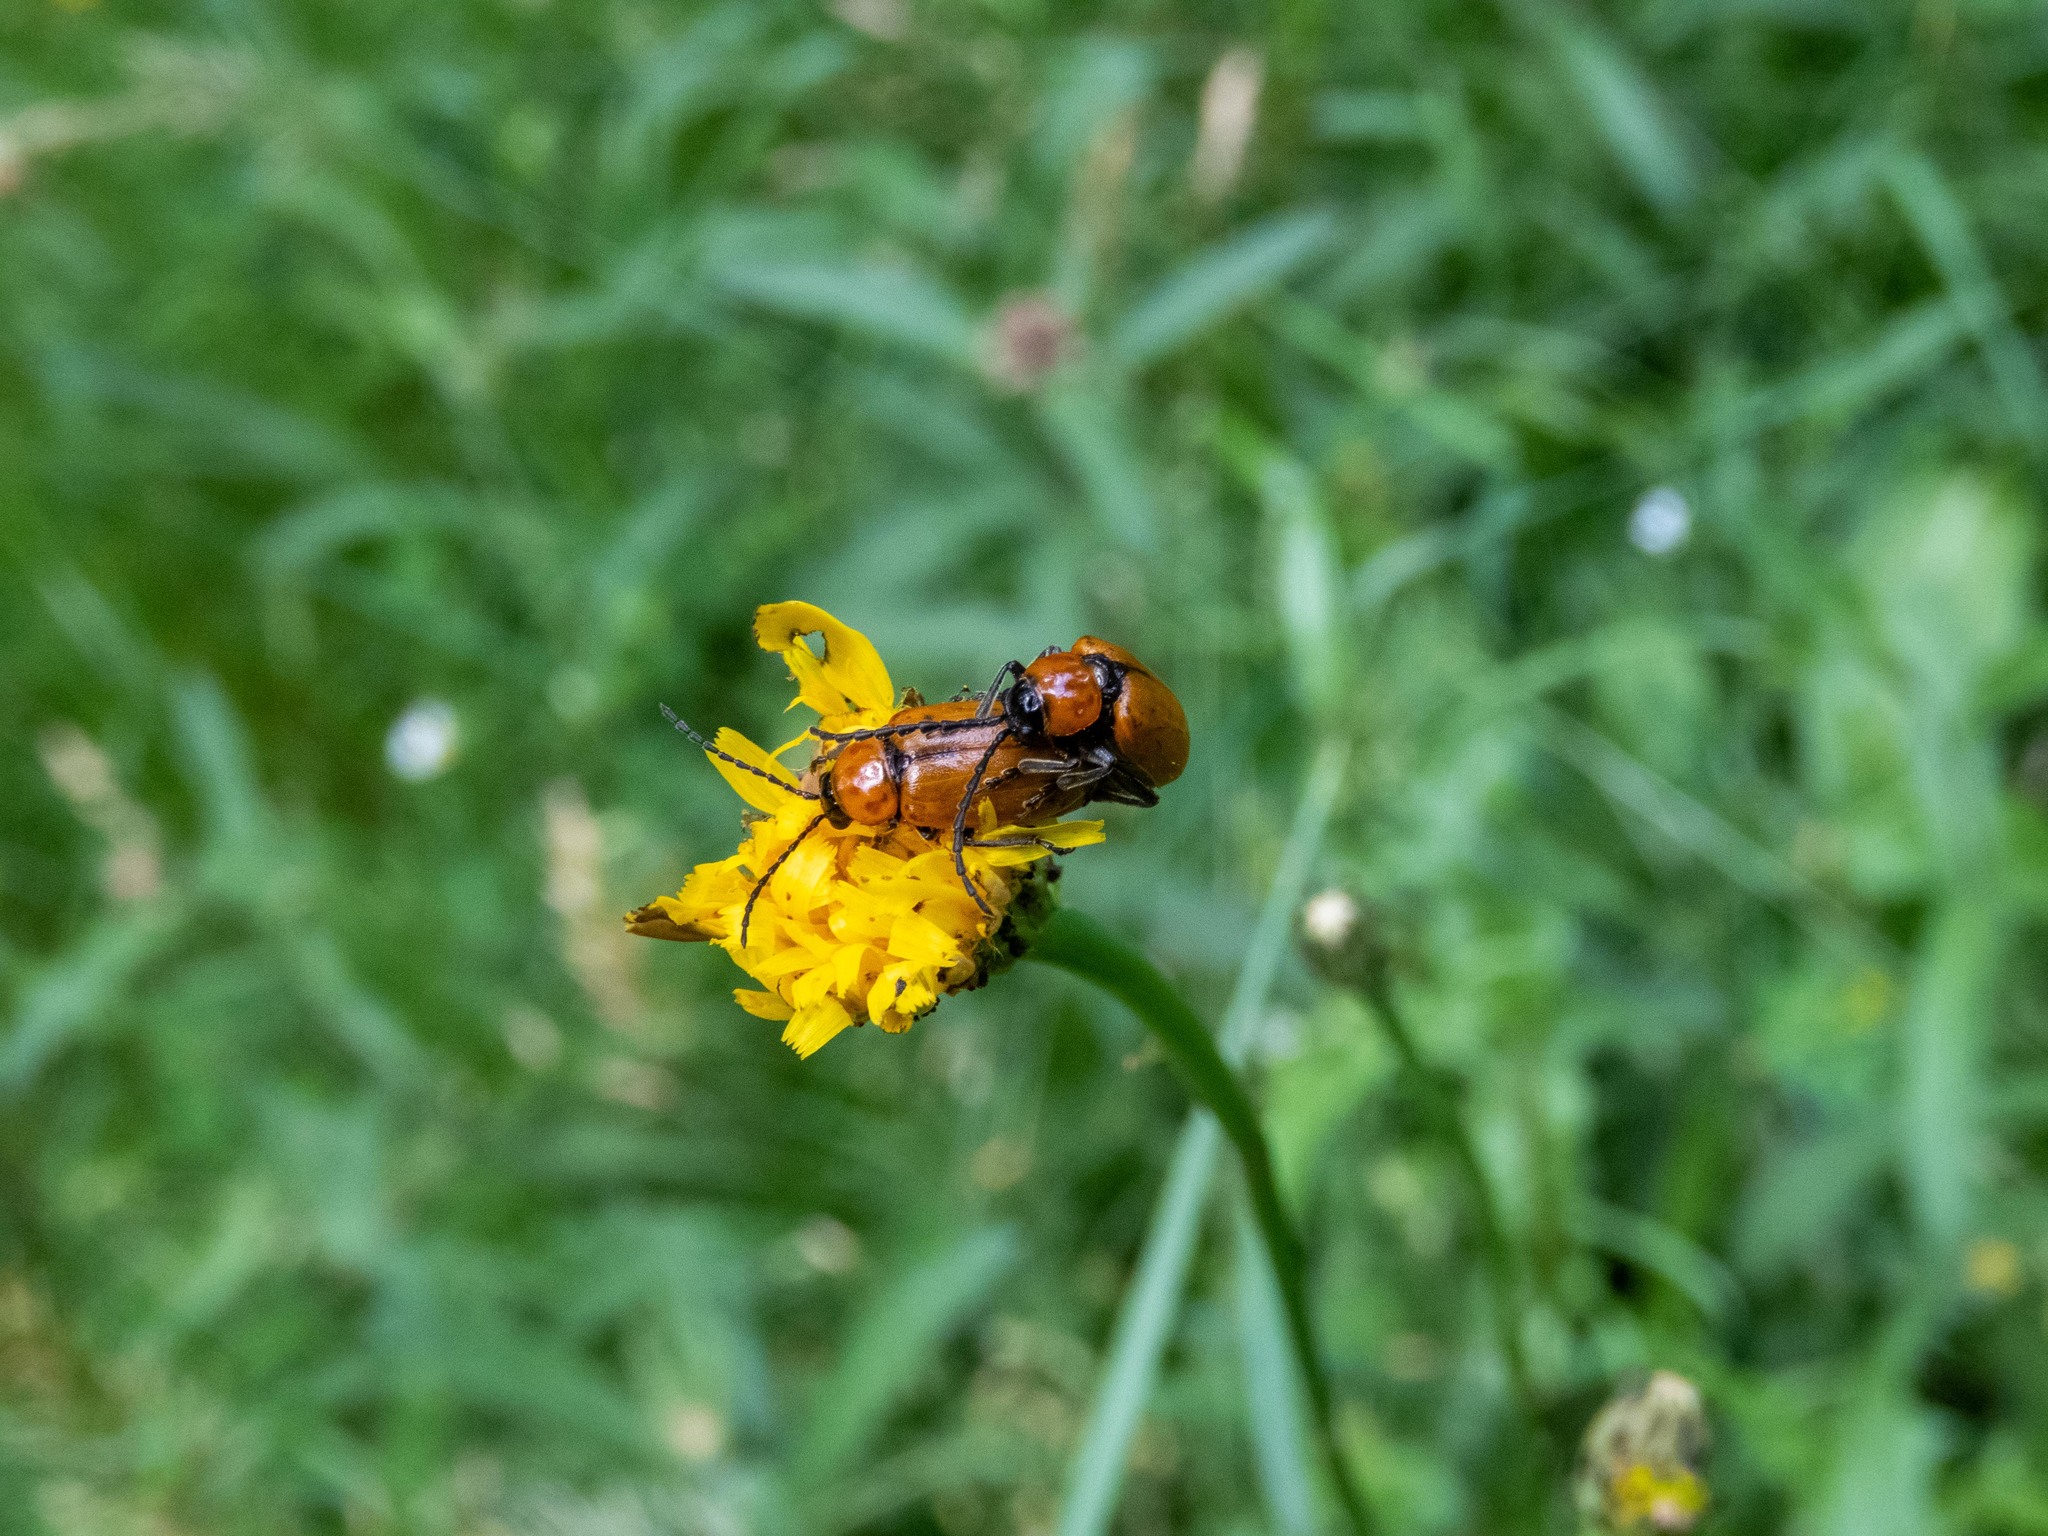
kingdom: Animalia
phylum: Arthropoda
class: Insecta
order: Coleoptera
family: Chrysomelidae
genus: Exosoma
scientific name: Exosoma lusitanicum
